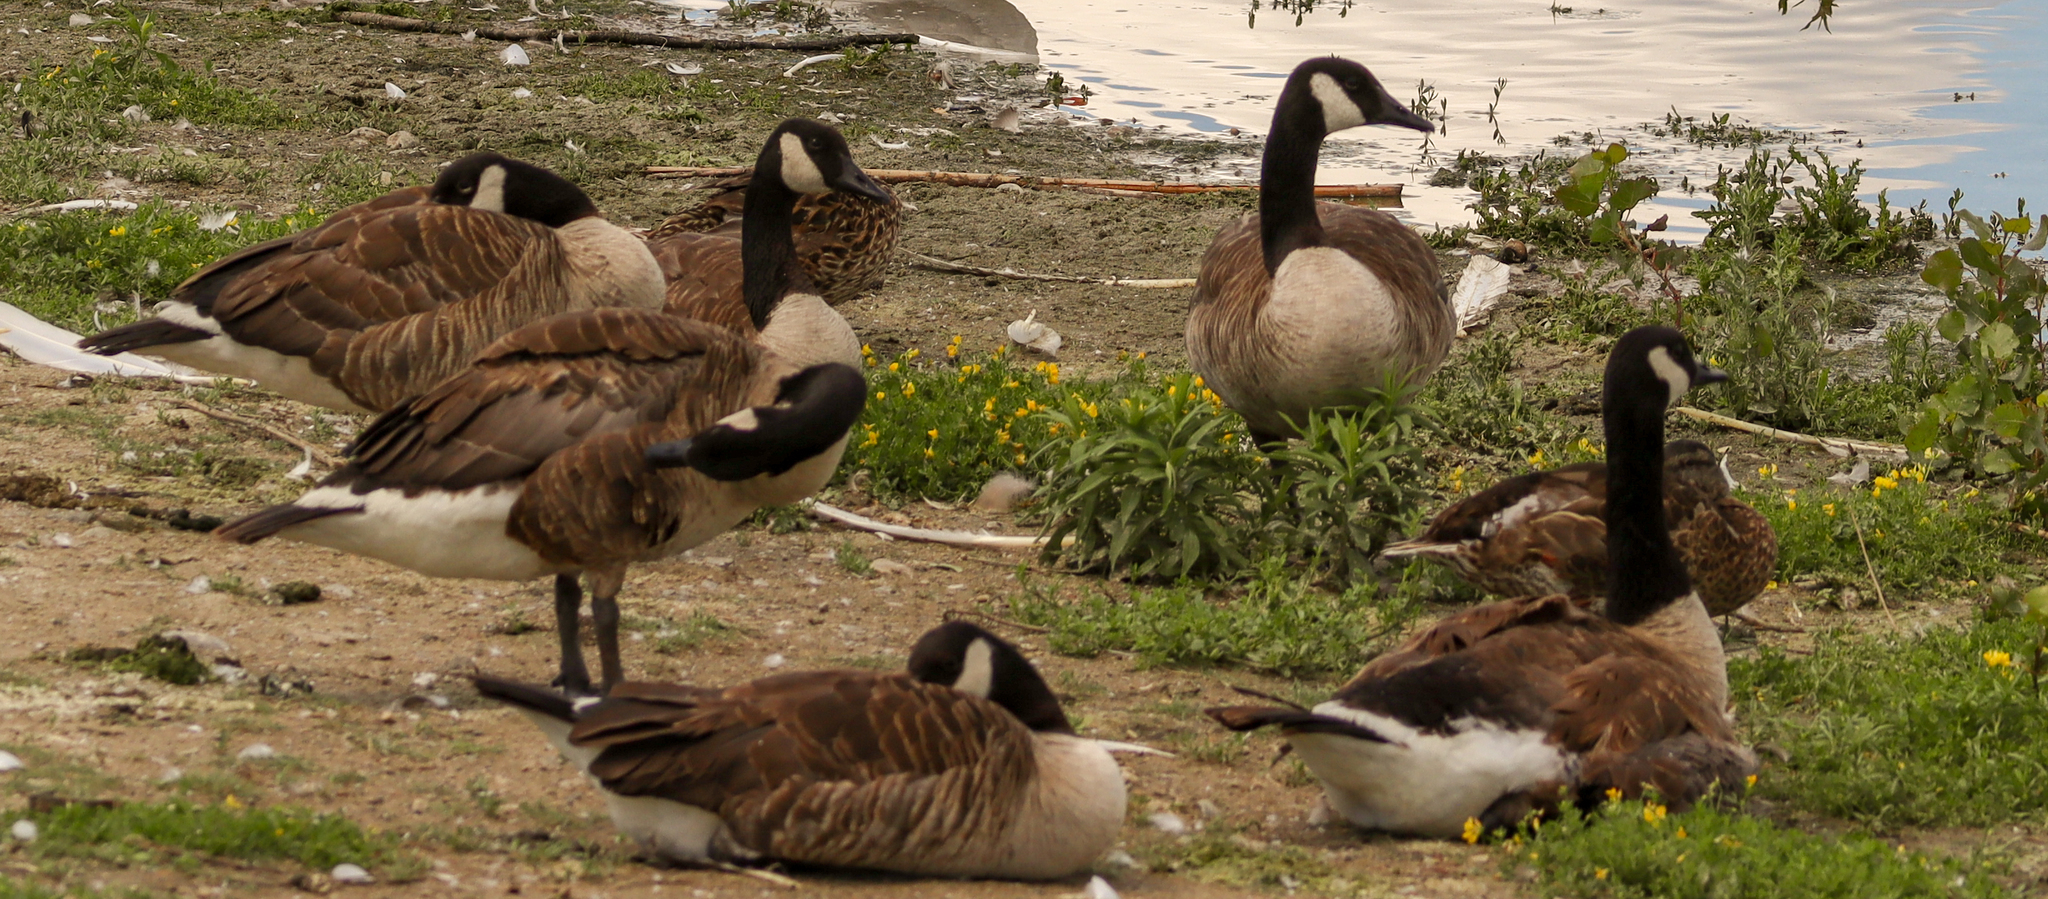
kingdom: Animalia
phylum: Chordata
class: Aves
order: Anseriformes
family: Anatidae
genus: Branta
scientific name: Branta canadensis
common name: Canada goose
